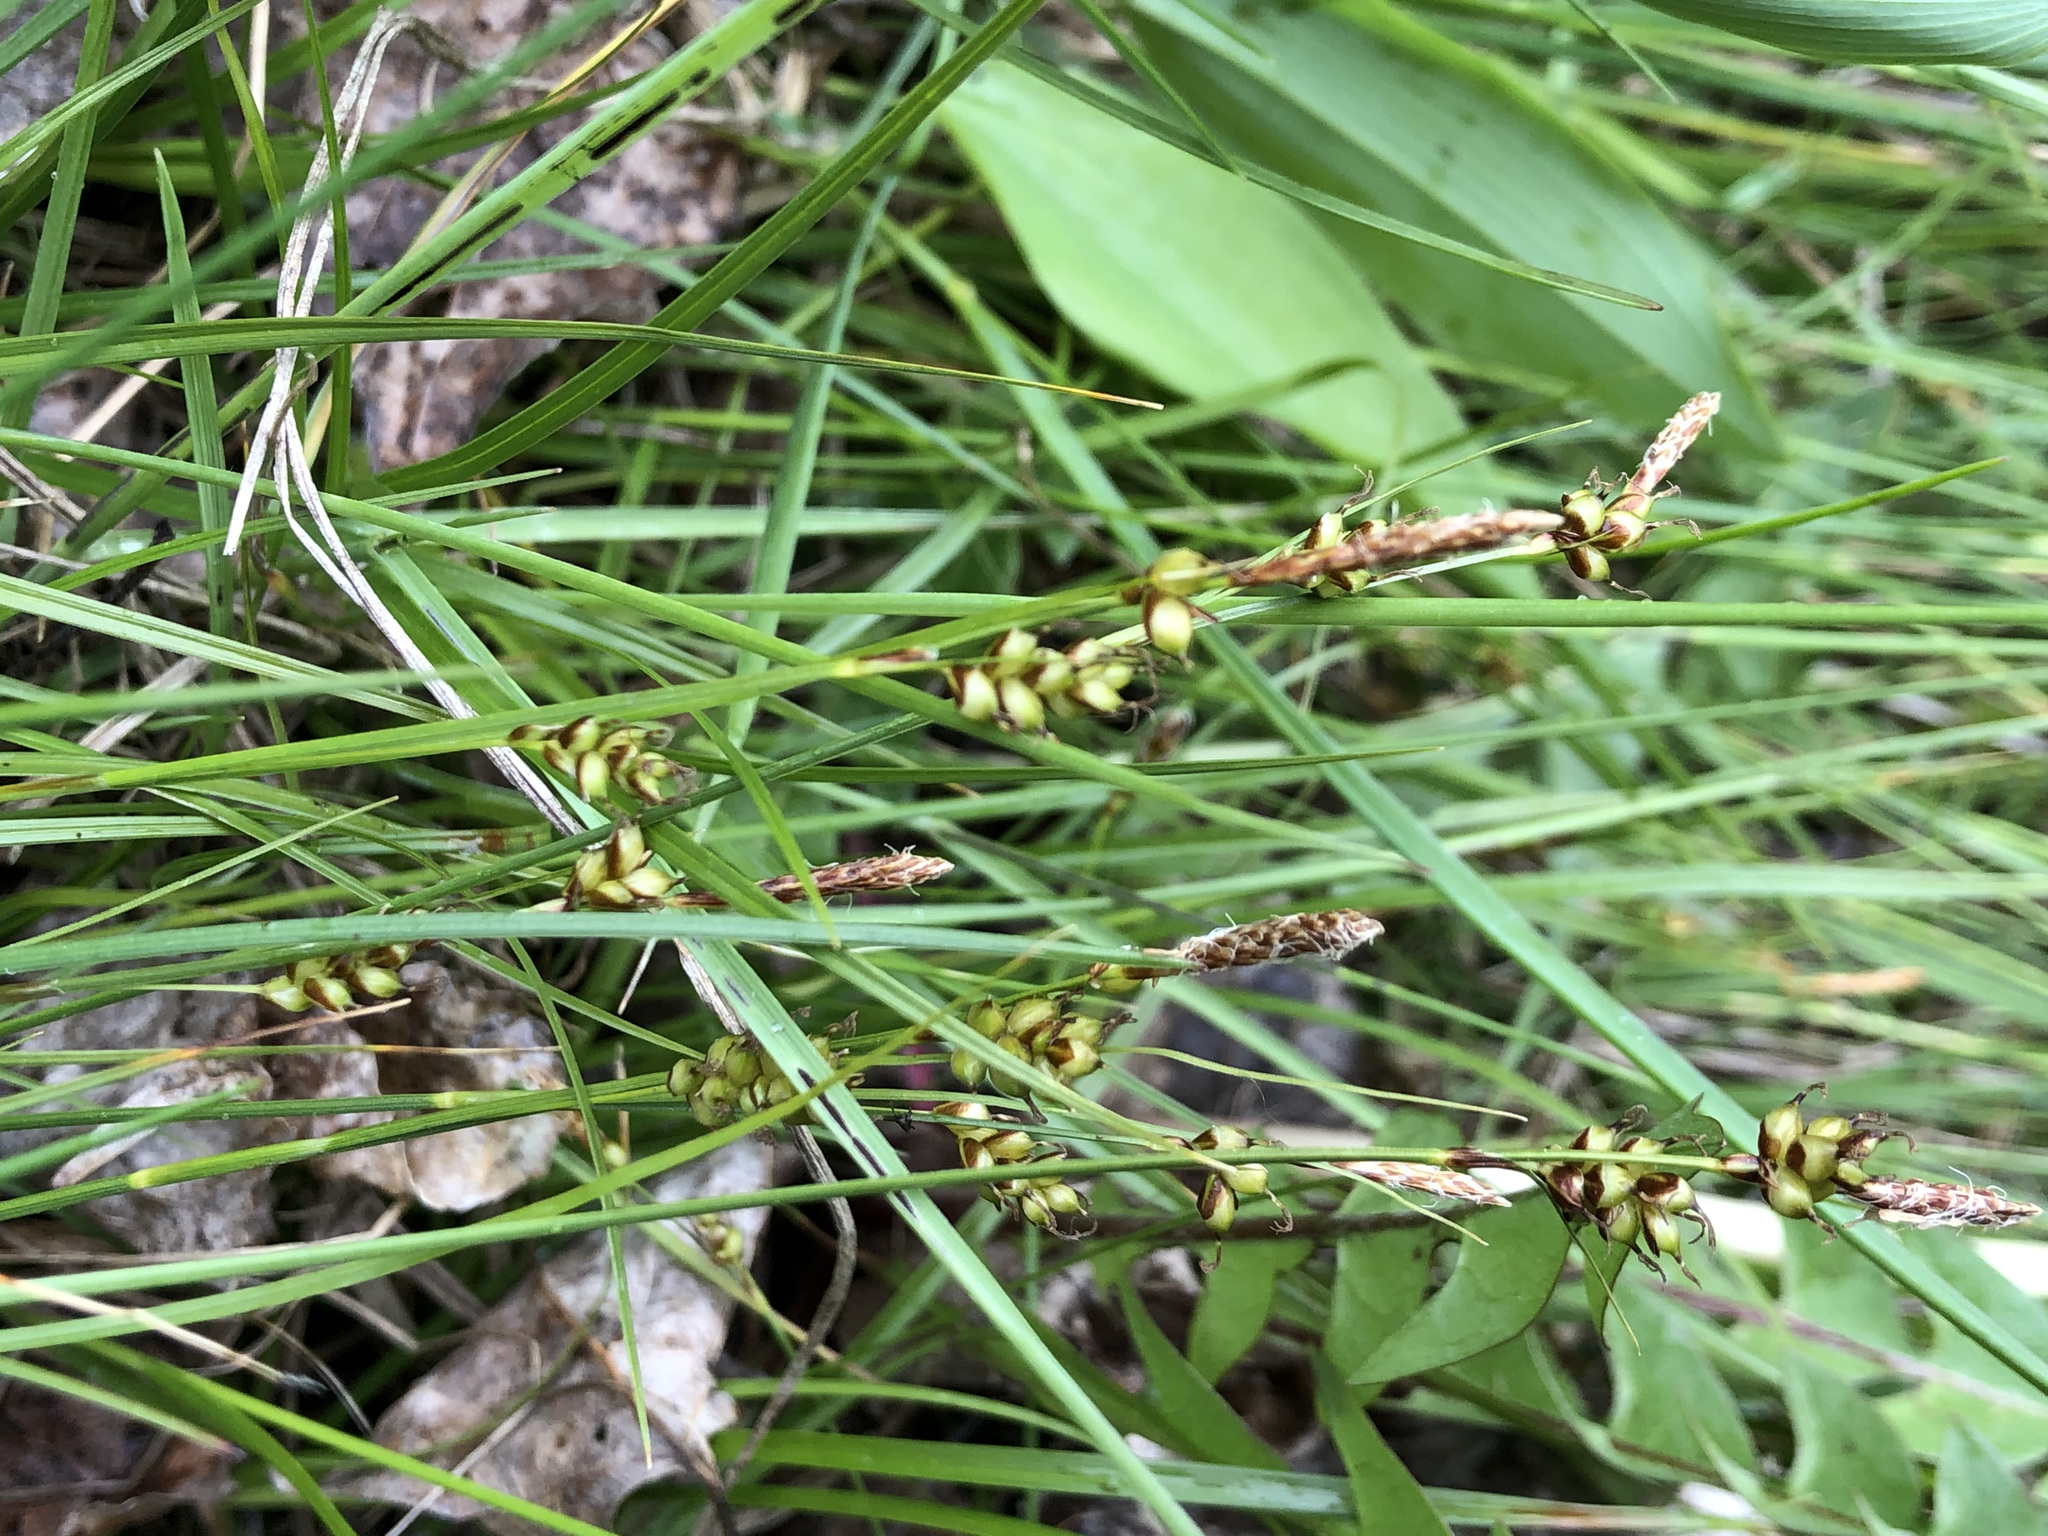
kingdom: Plantae
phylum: Tracheophyta
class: Liliopsida
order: Poales
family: Cyperaceae
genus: Carex
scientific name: Carex liparocarpos
